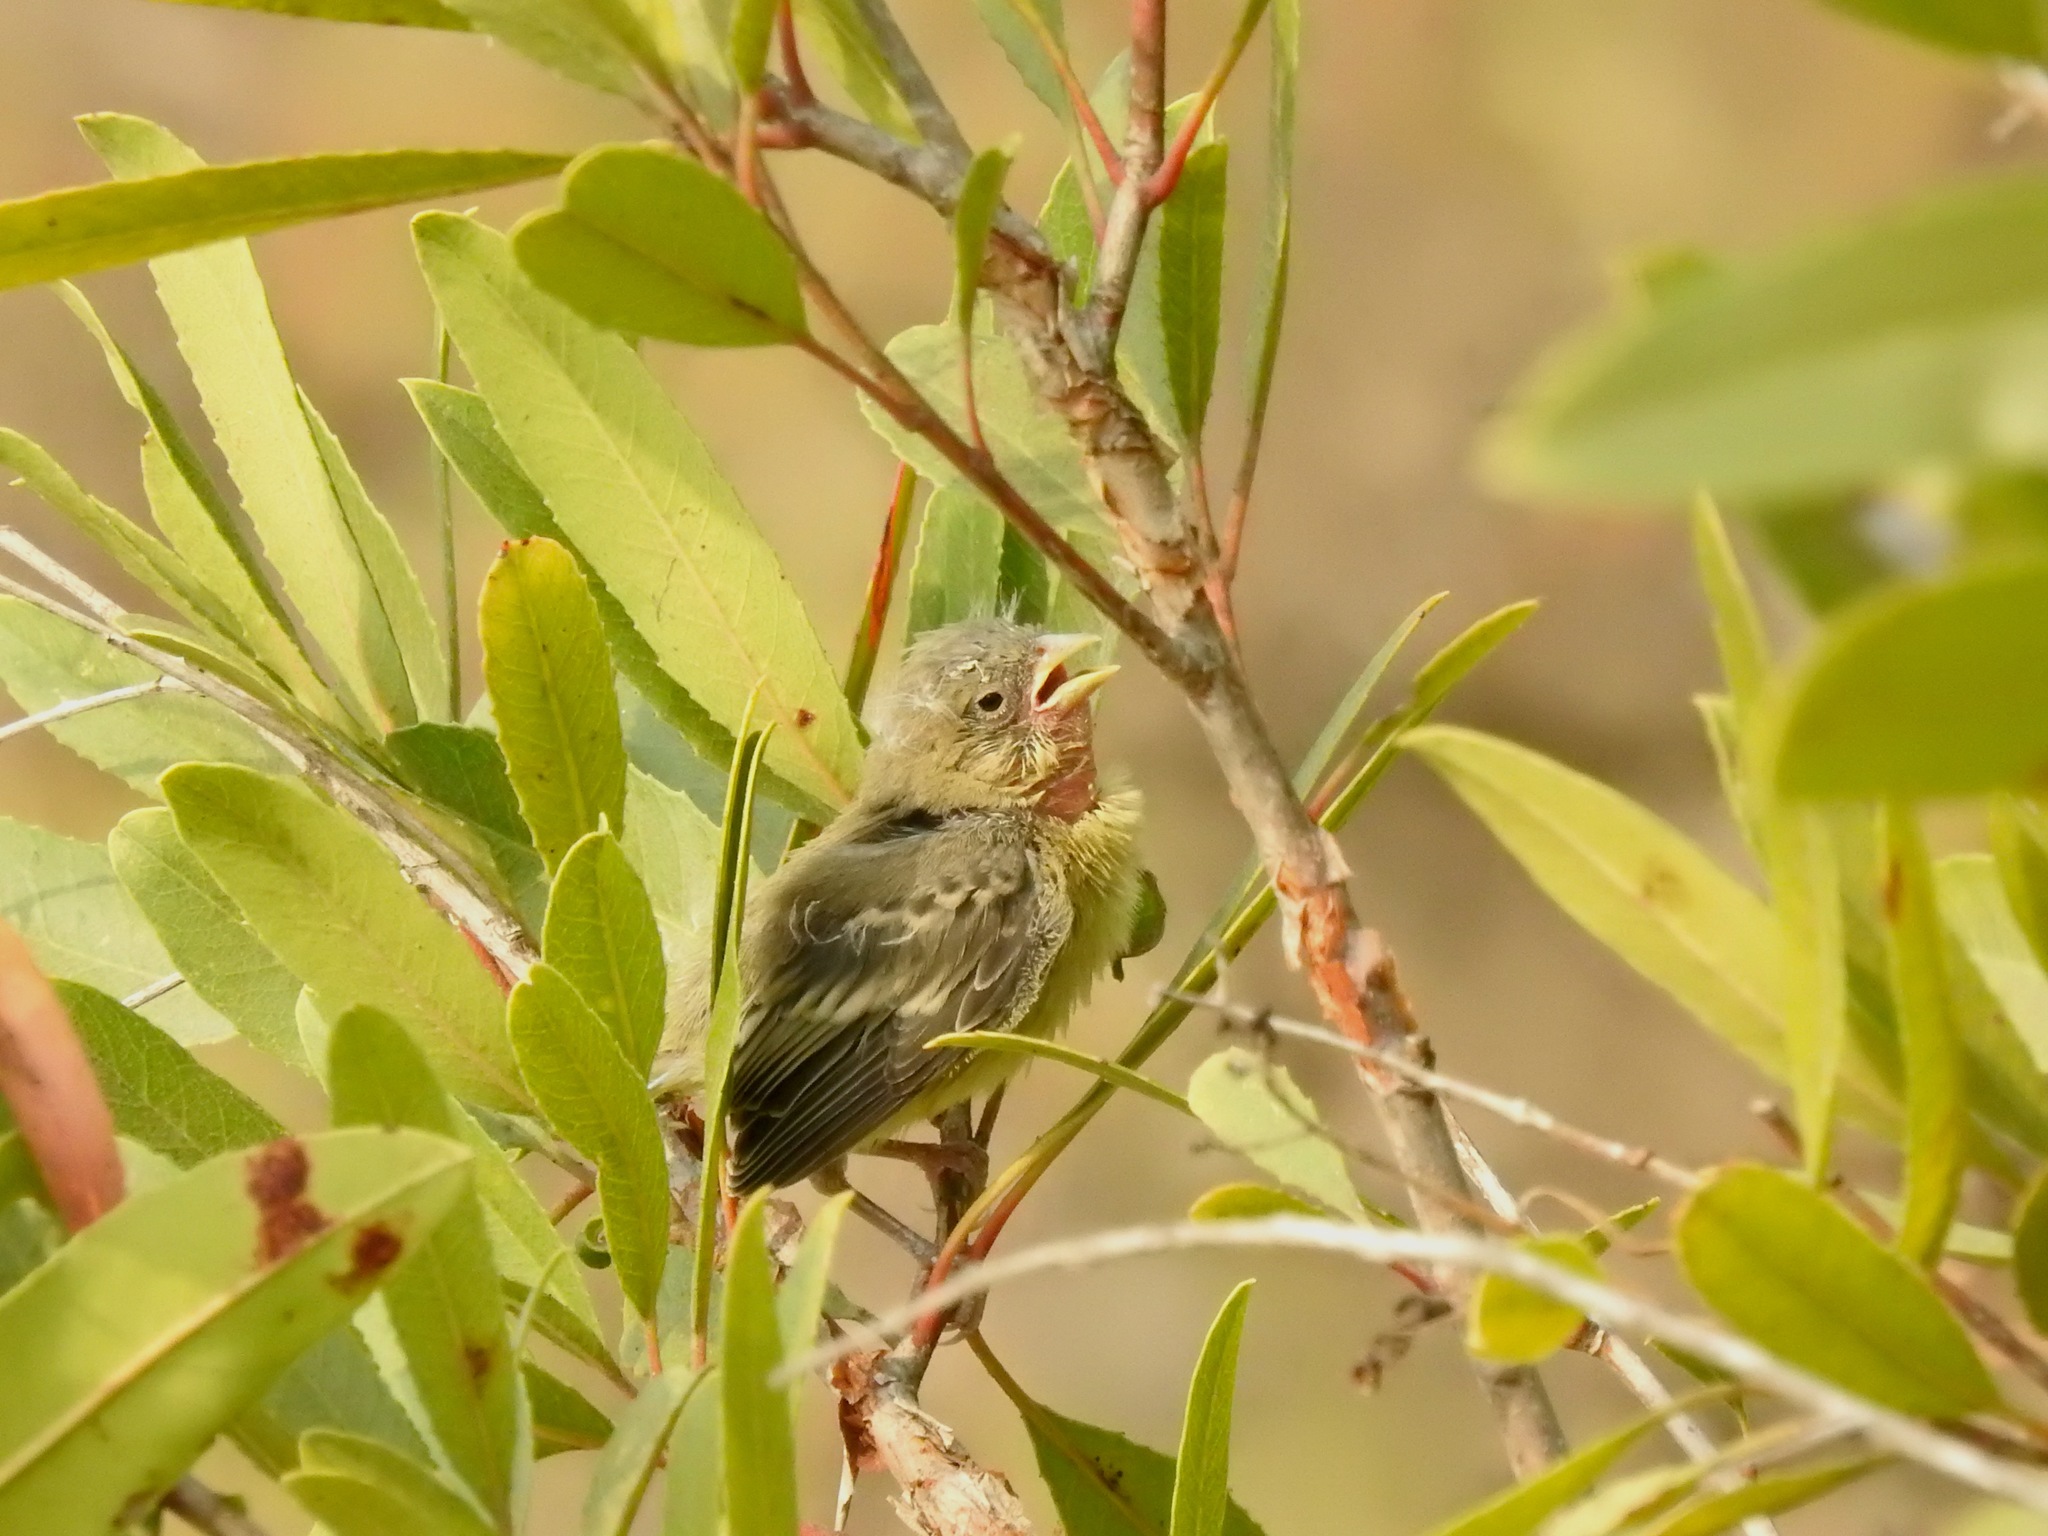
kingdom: Animalia
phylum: Chordata
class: Aves
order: Passeriformes
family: Fringillidae
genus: Spinus
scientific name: Spinus psaltria
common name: Lesser goldfinch
